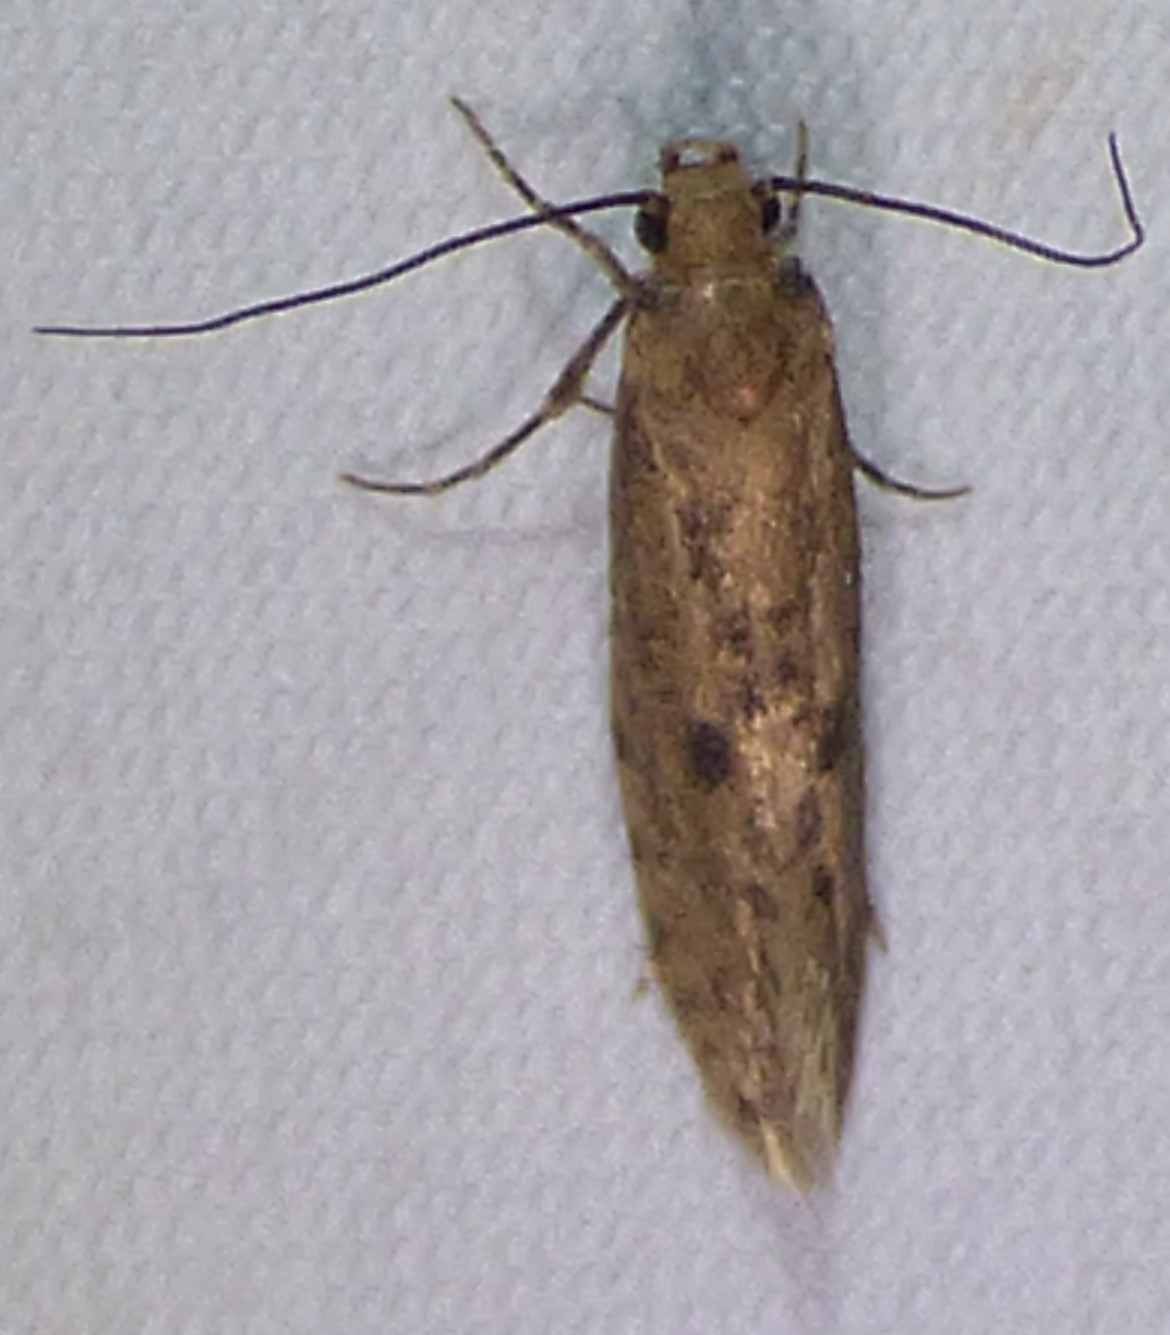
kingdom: Animalia
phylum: Arthropoda
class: Insecta
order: Lepidoptera
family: Tineidae
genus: Amydria
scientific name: Amydria effrentella
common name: Brown-blotched amydria moth
